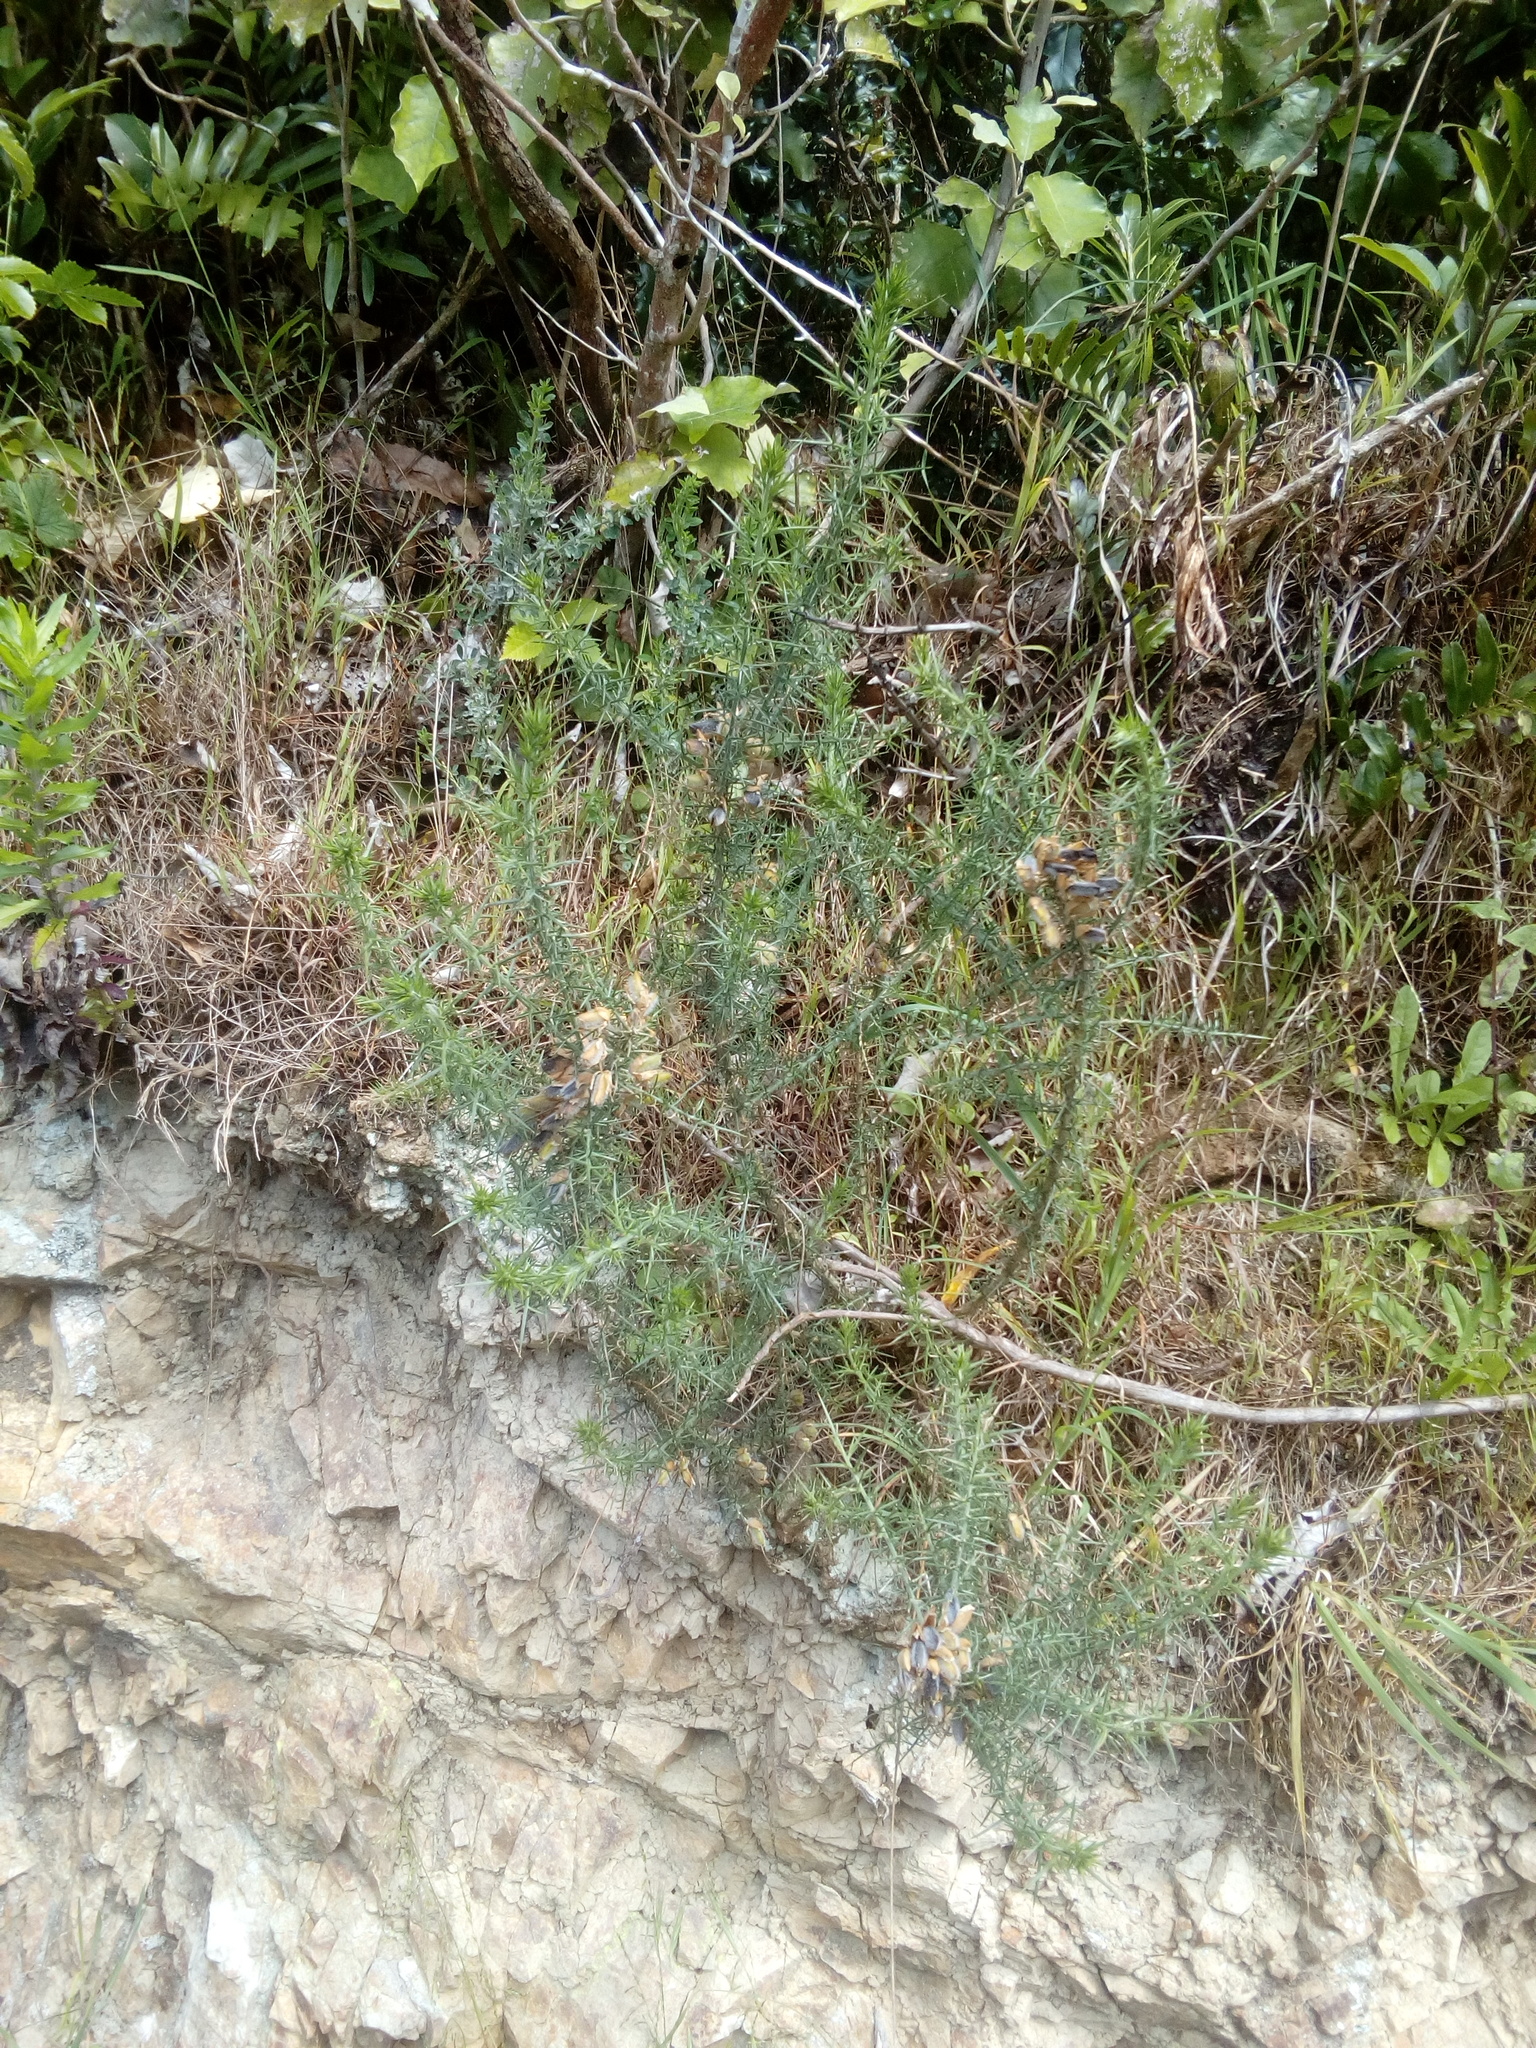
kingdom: Plantae
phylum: Tracheophyta
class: Magnoliopsida
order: Fabales
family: Fabaceae
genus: Ulex
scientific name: Ulex europaeus
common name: Common gorse
